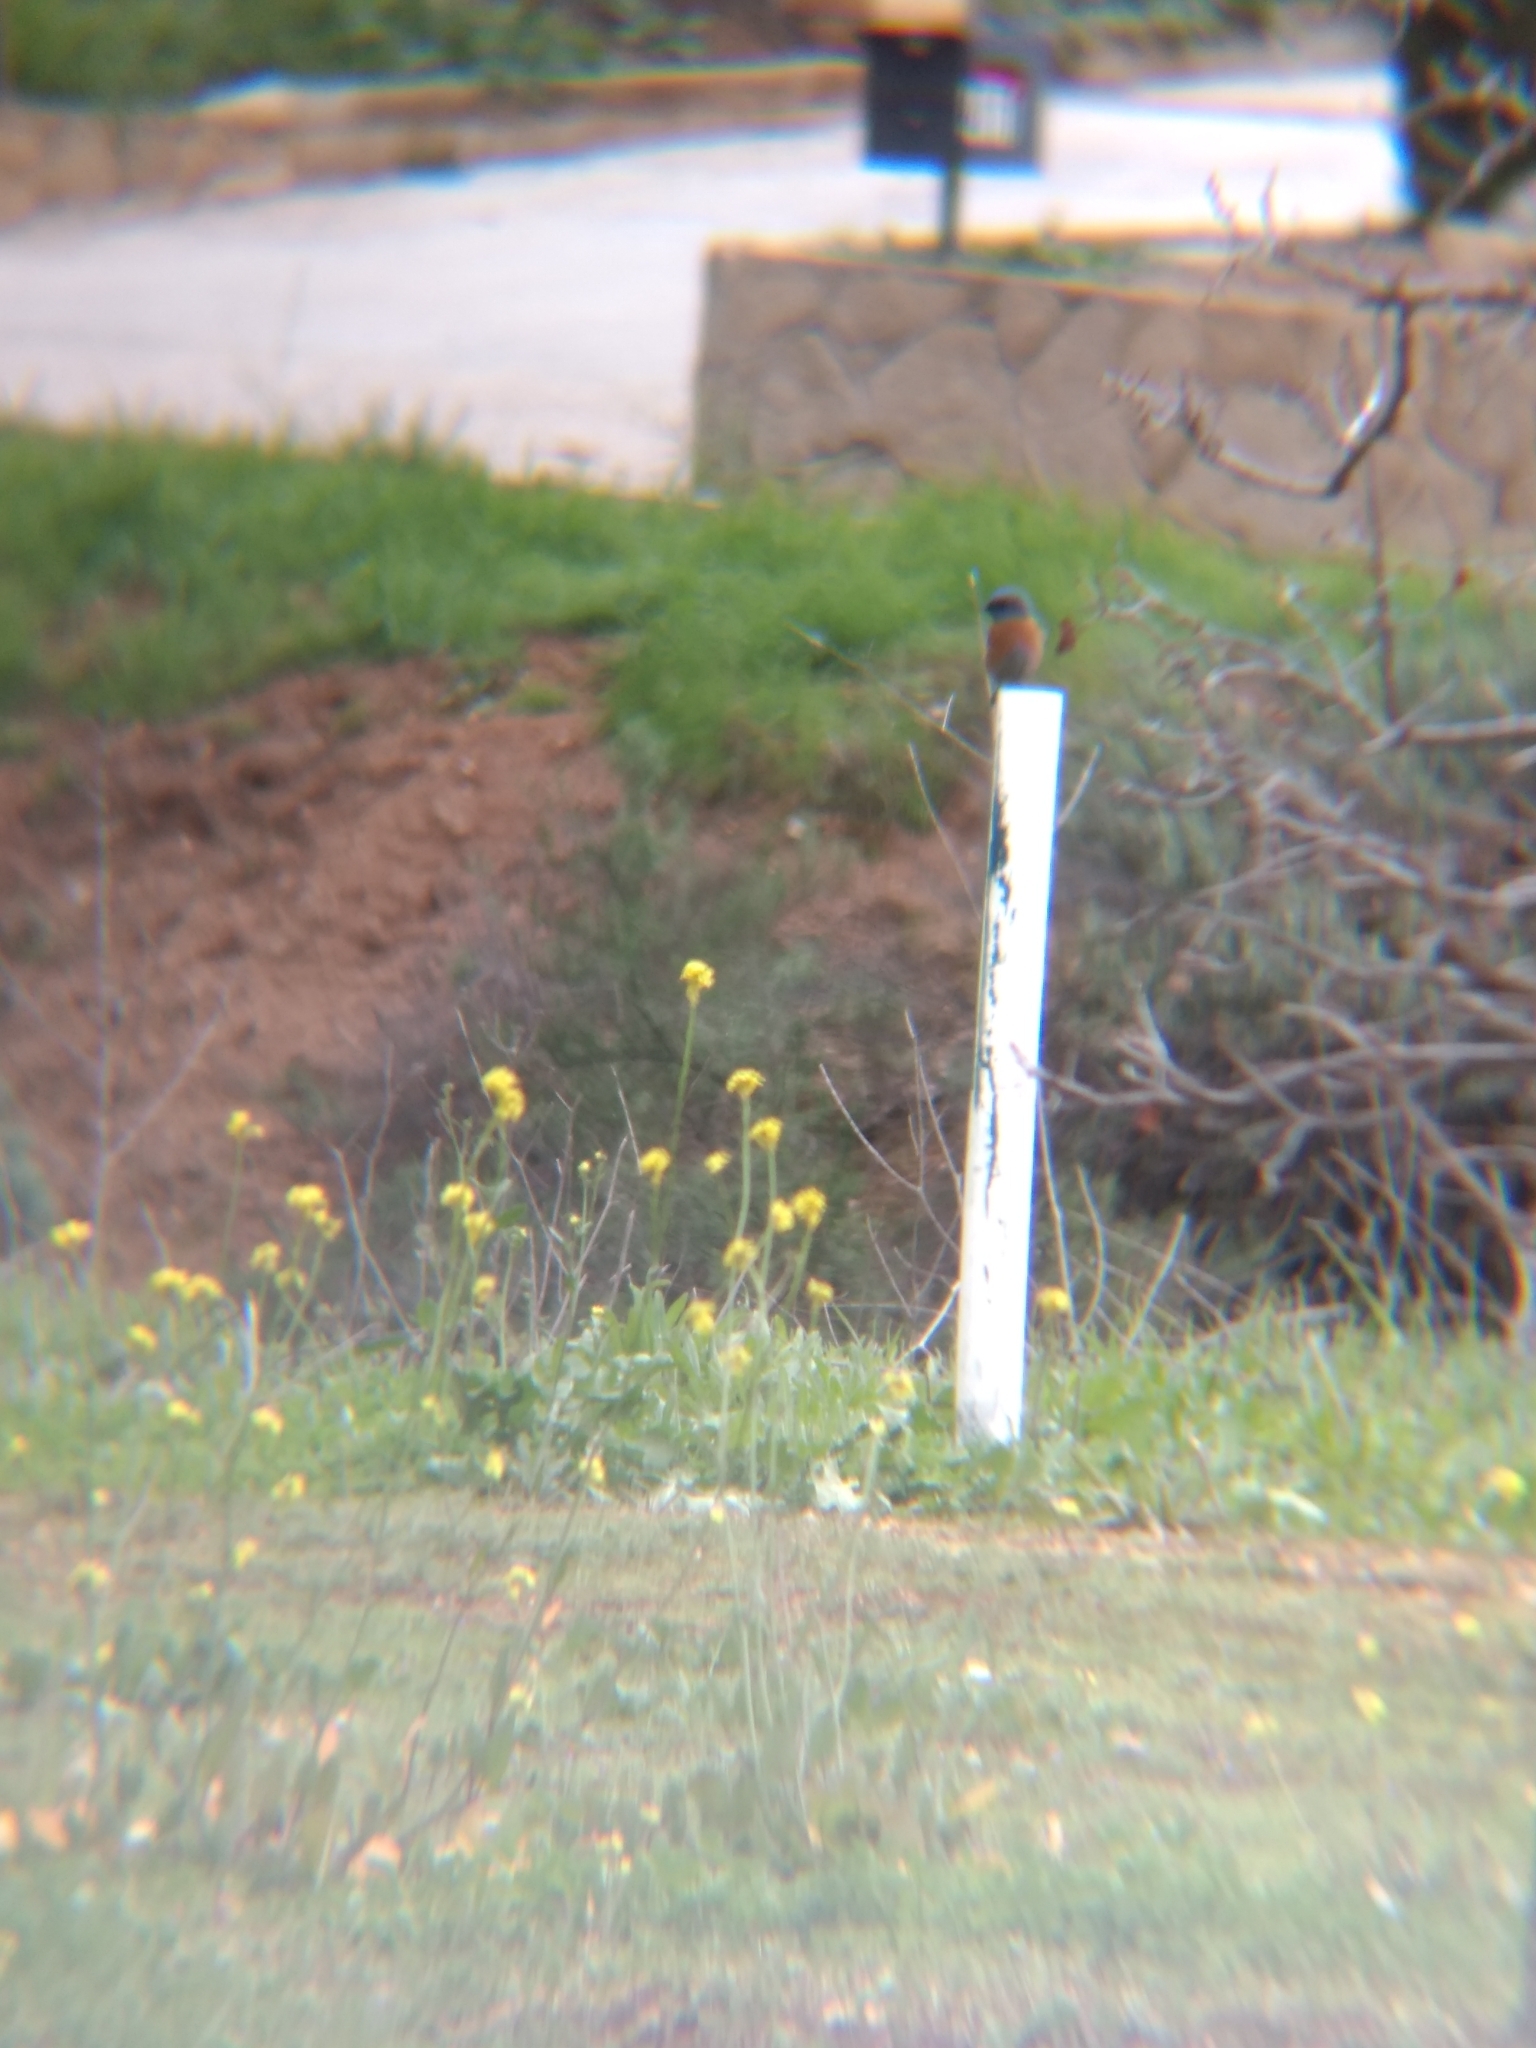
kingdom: Animalia
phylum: Chordata
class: Aves
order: Passeriformes
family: Turdidae
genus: Sialia
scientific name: Sialia mexicana
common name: Western bluebird
